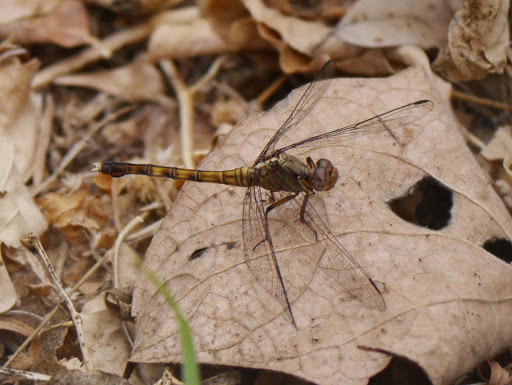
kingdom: Animalia
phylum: Arthropoda
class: Insecta
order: Odonata
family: Libellulidae
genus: Orthetrum
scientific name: Orthetrum julia
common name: Julia skimmer
